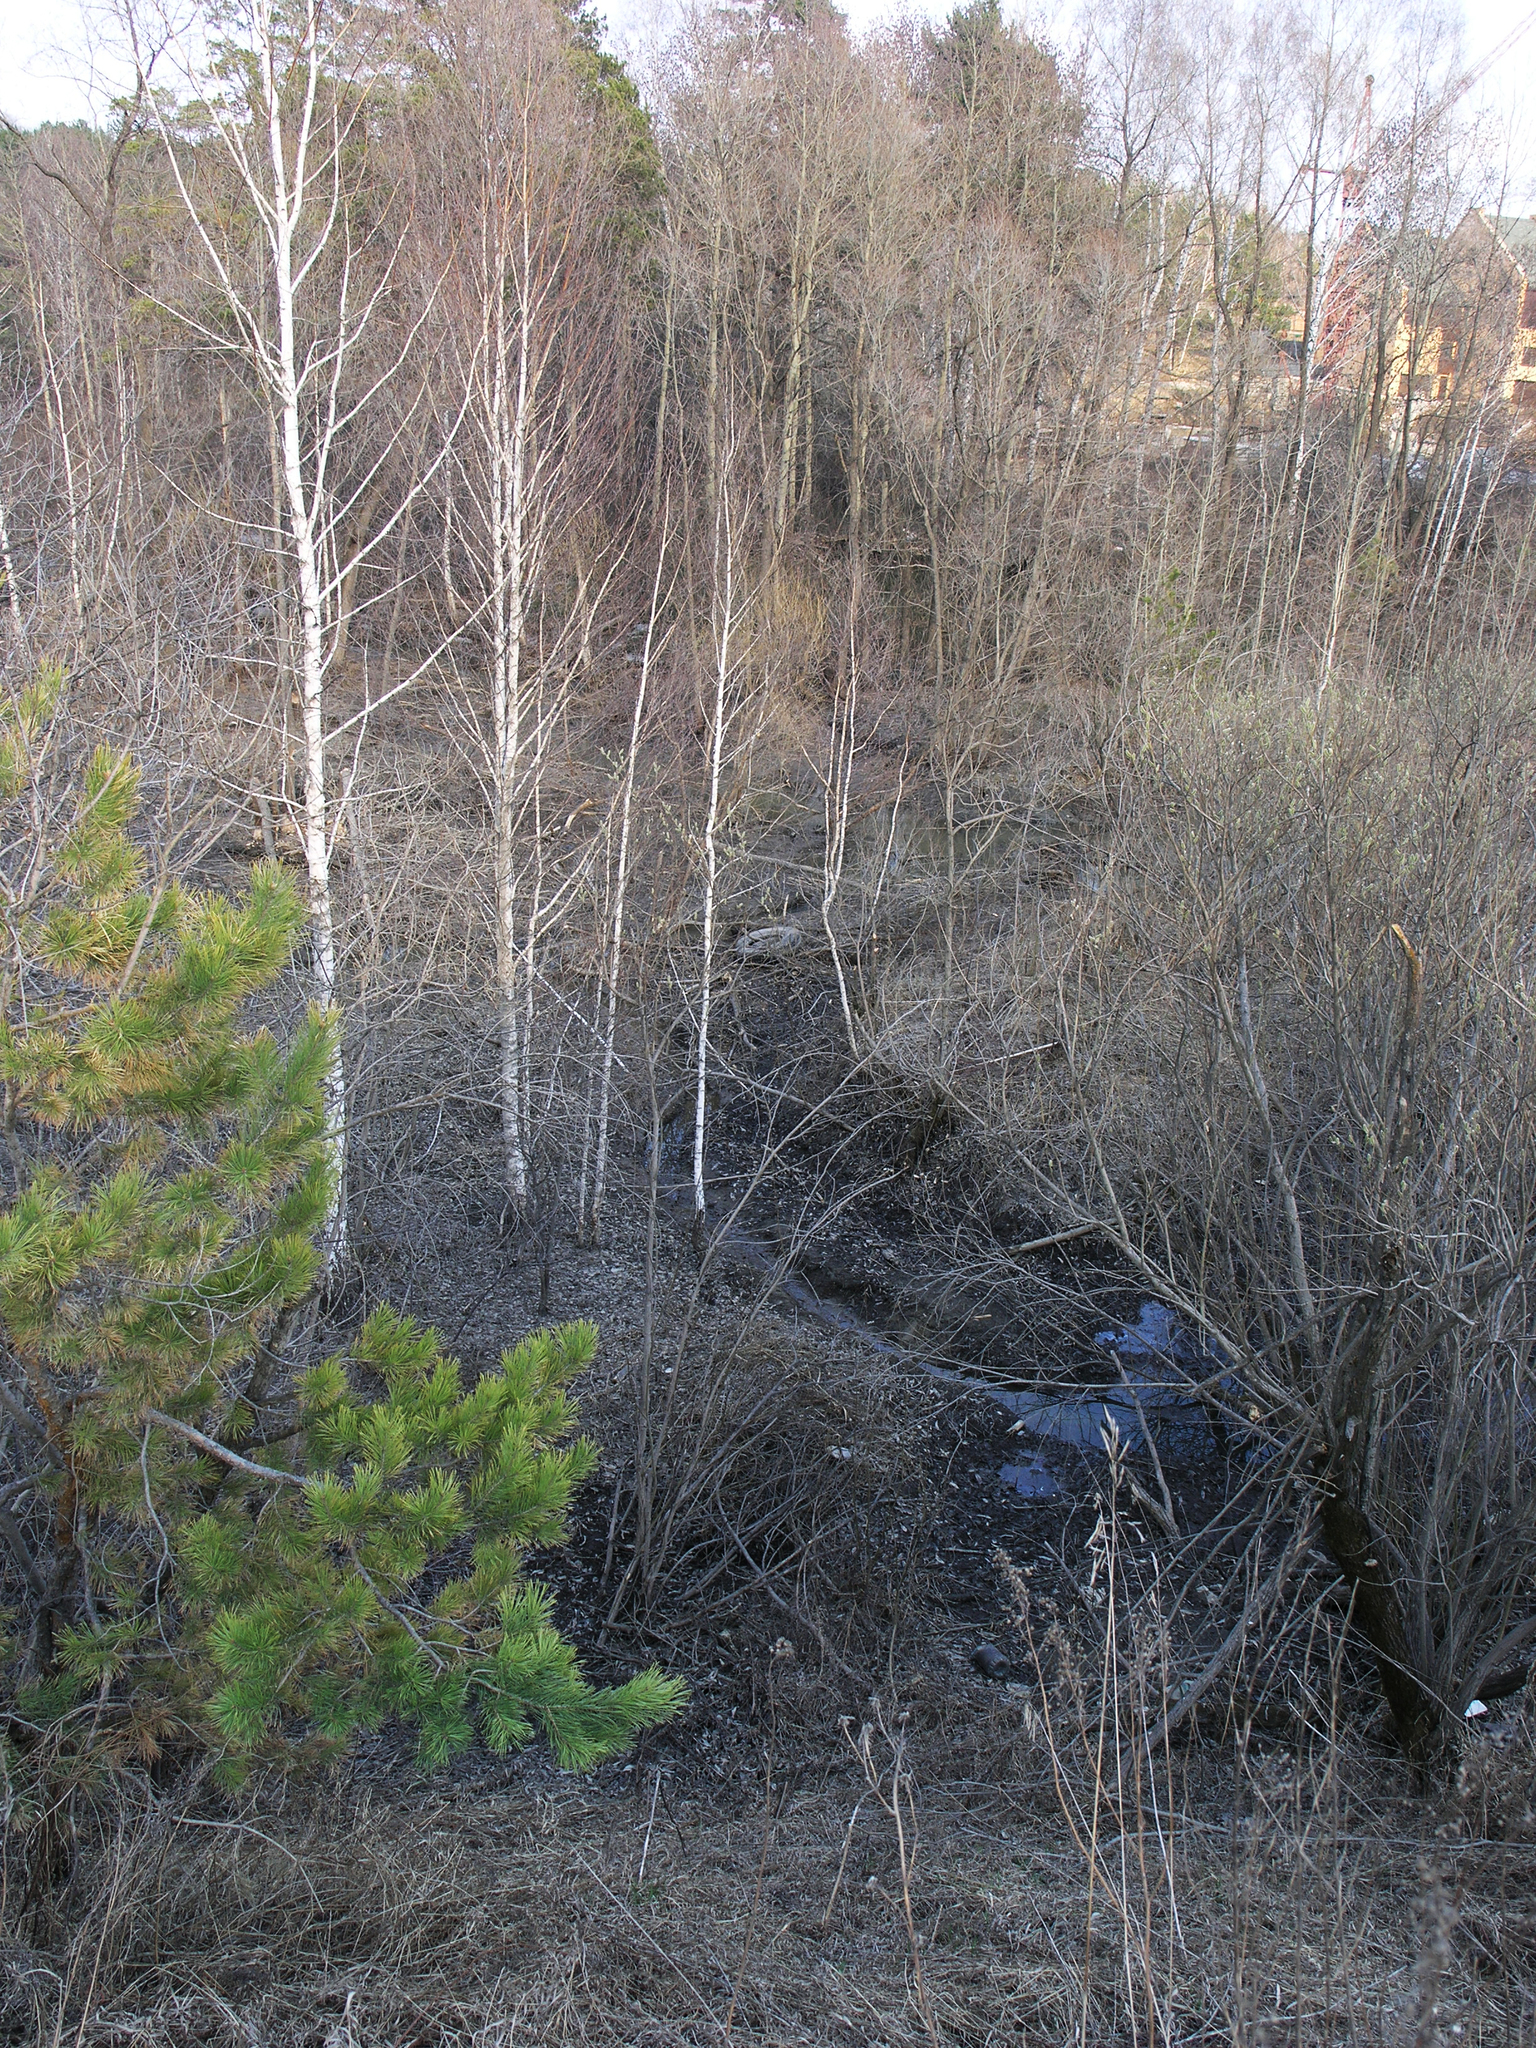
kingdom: Plantae
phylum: Tracheophyta
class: Pinopsida
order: Pinales
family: Pinaceae
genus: Pinus
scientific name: Pinus sylvestris
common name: Scots pine
